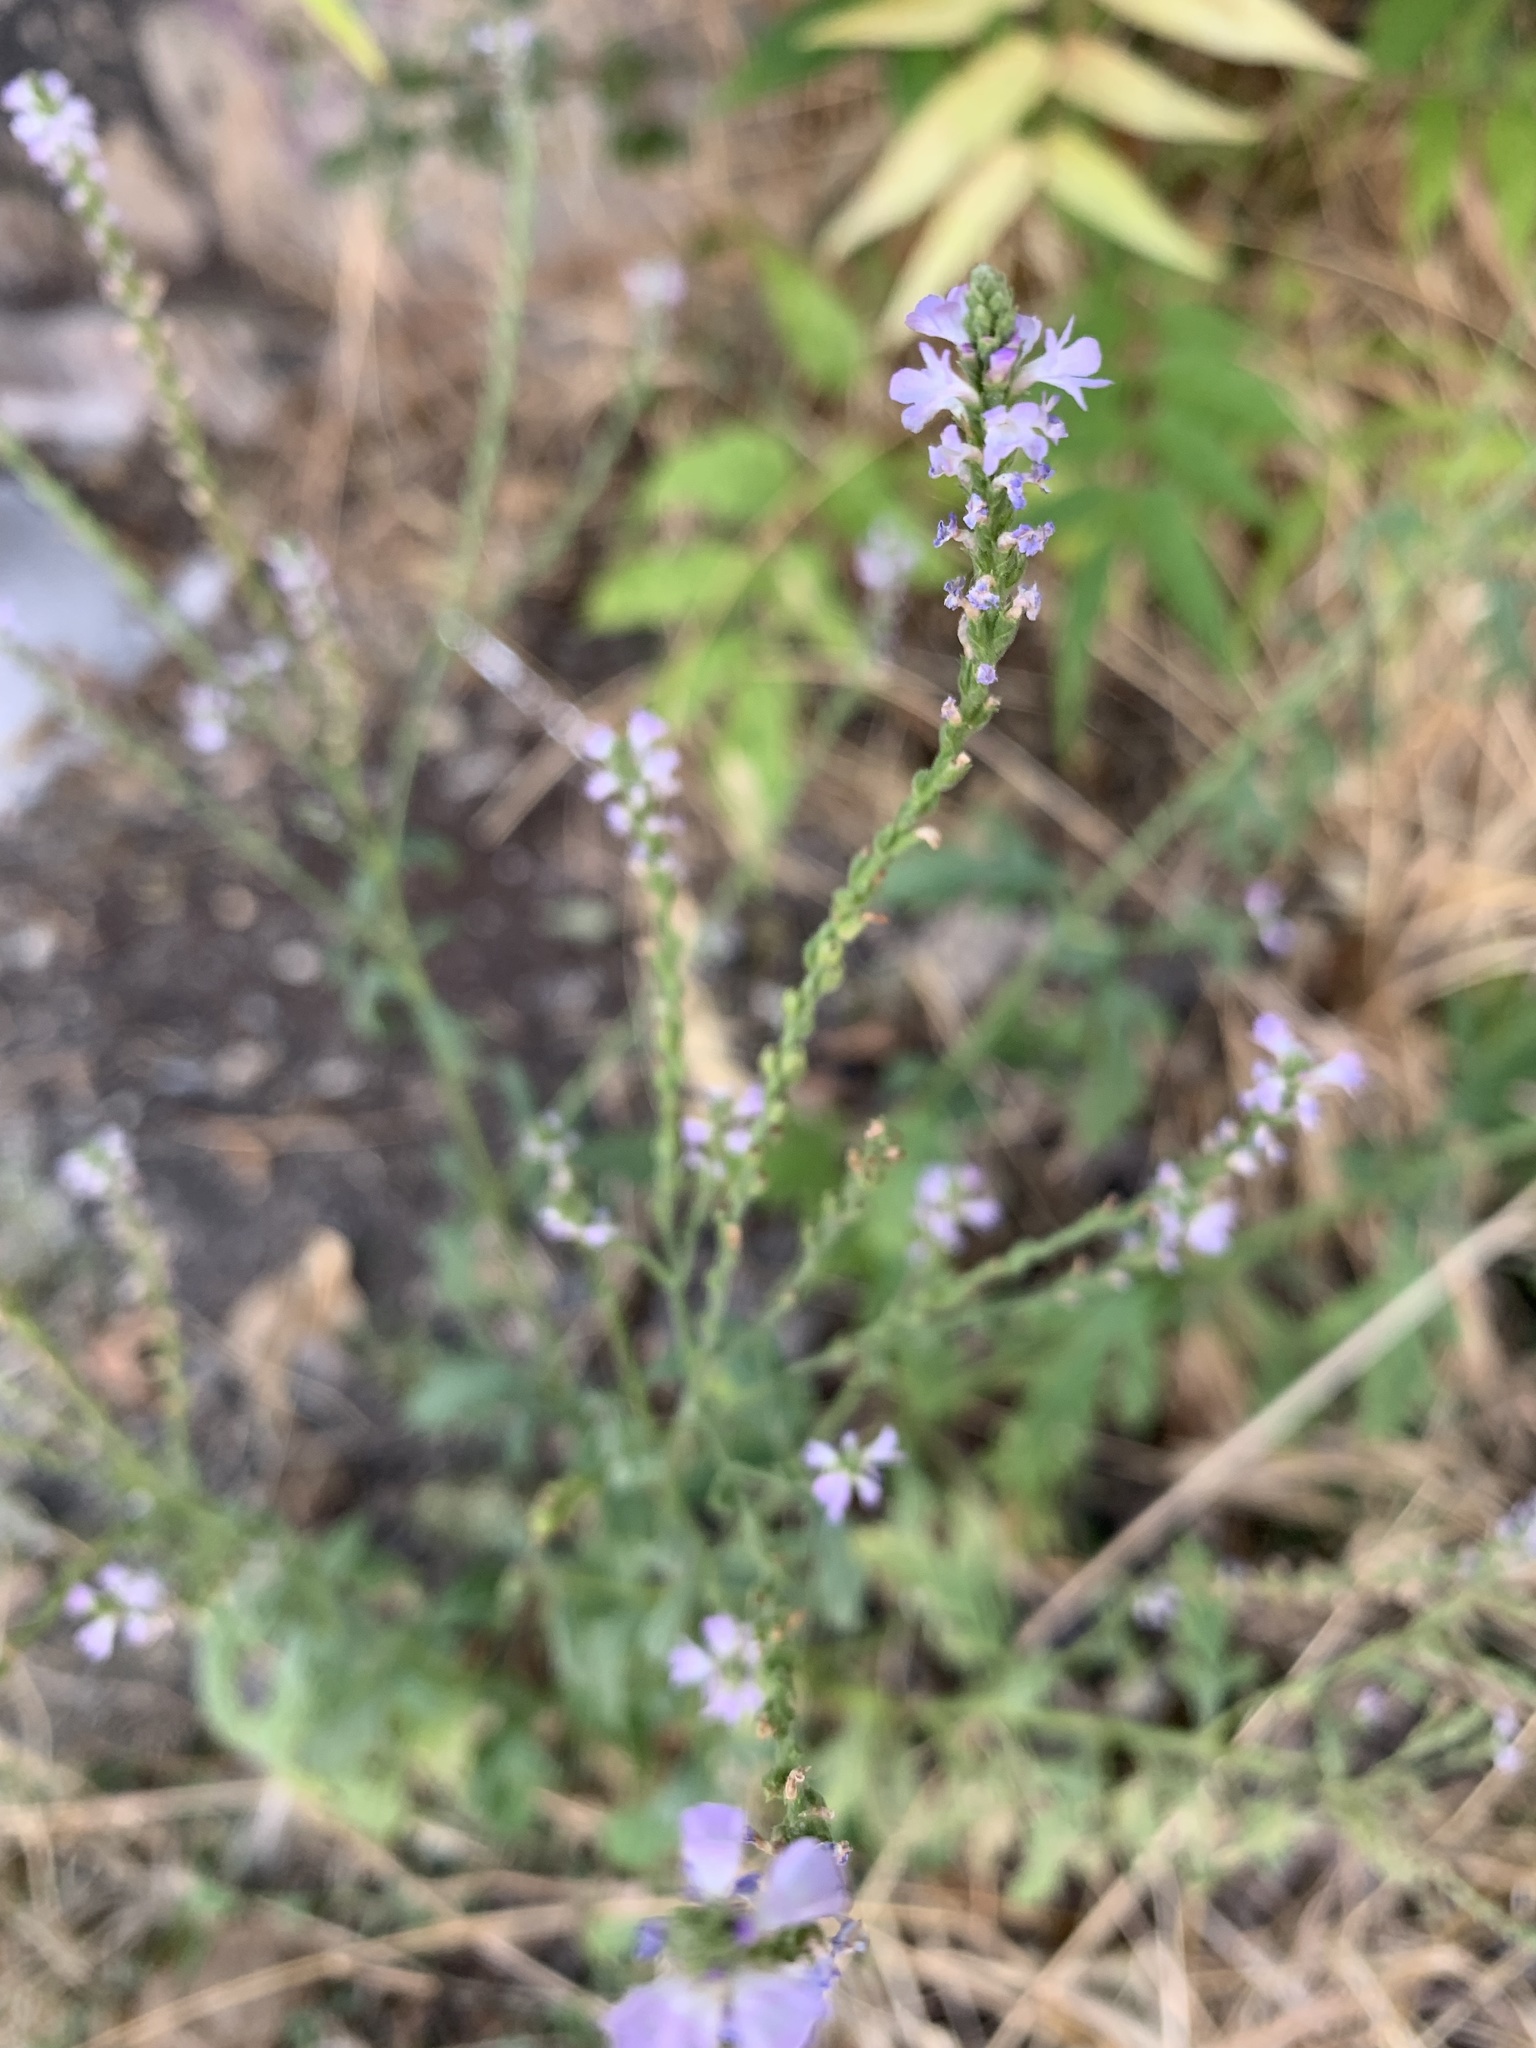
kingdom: Plantae
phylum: Tracheophyta
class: Magnoliopsida
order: Lamiales
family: Verbenaceae
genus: Verbena
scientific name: Verbena officinalis
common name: Vervain
